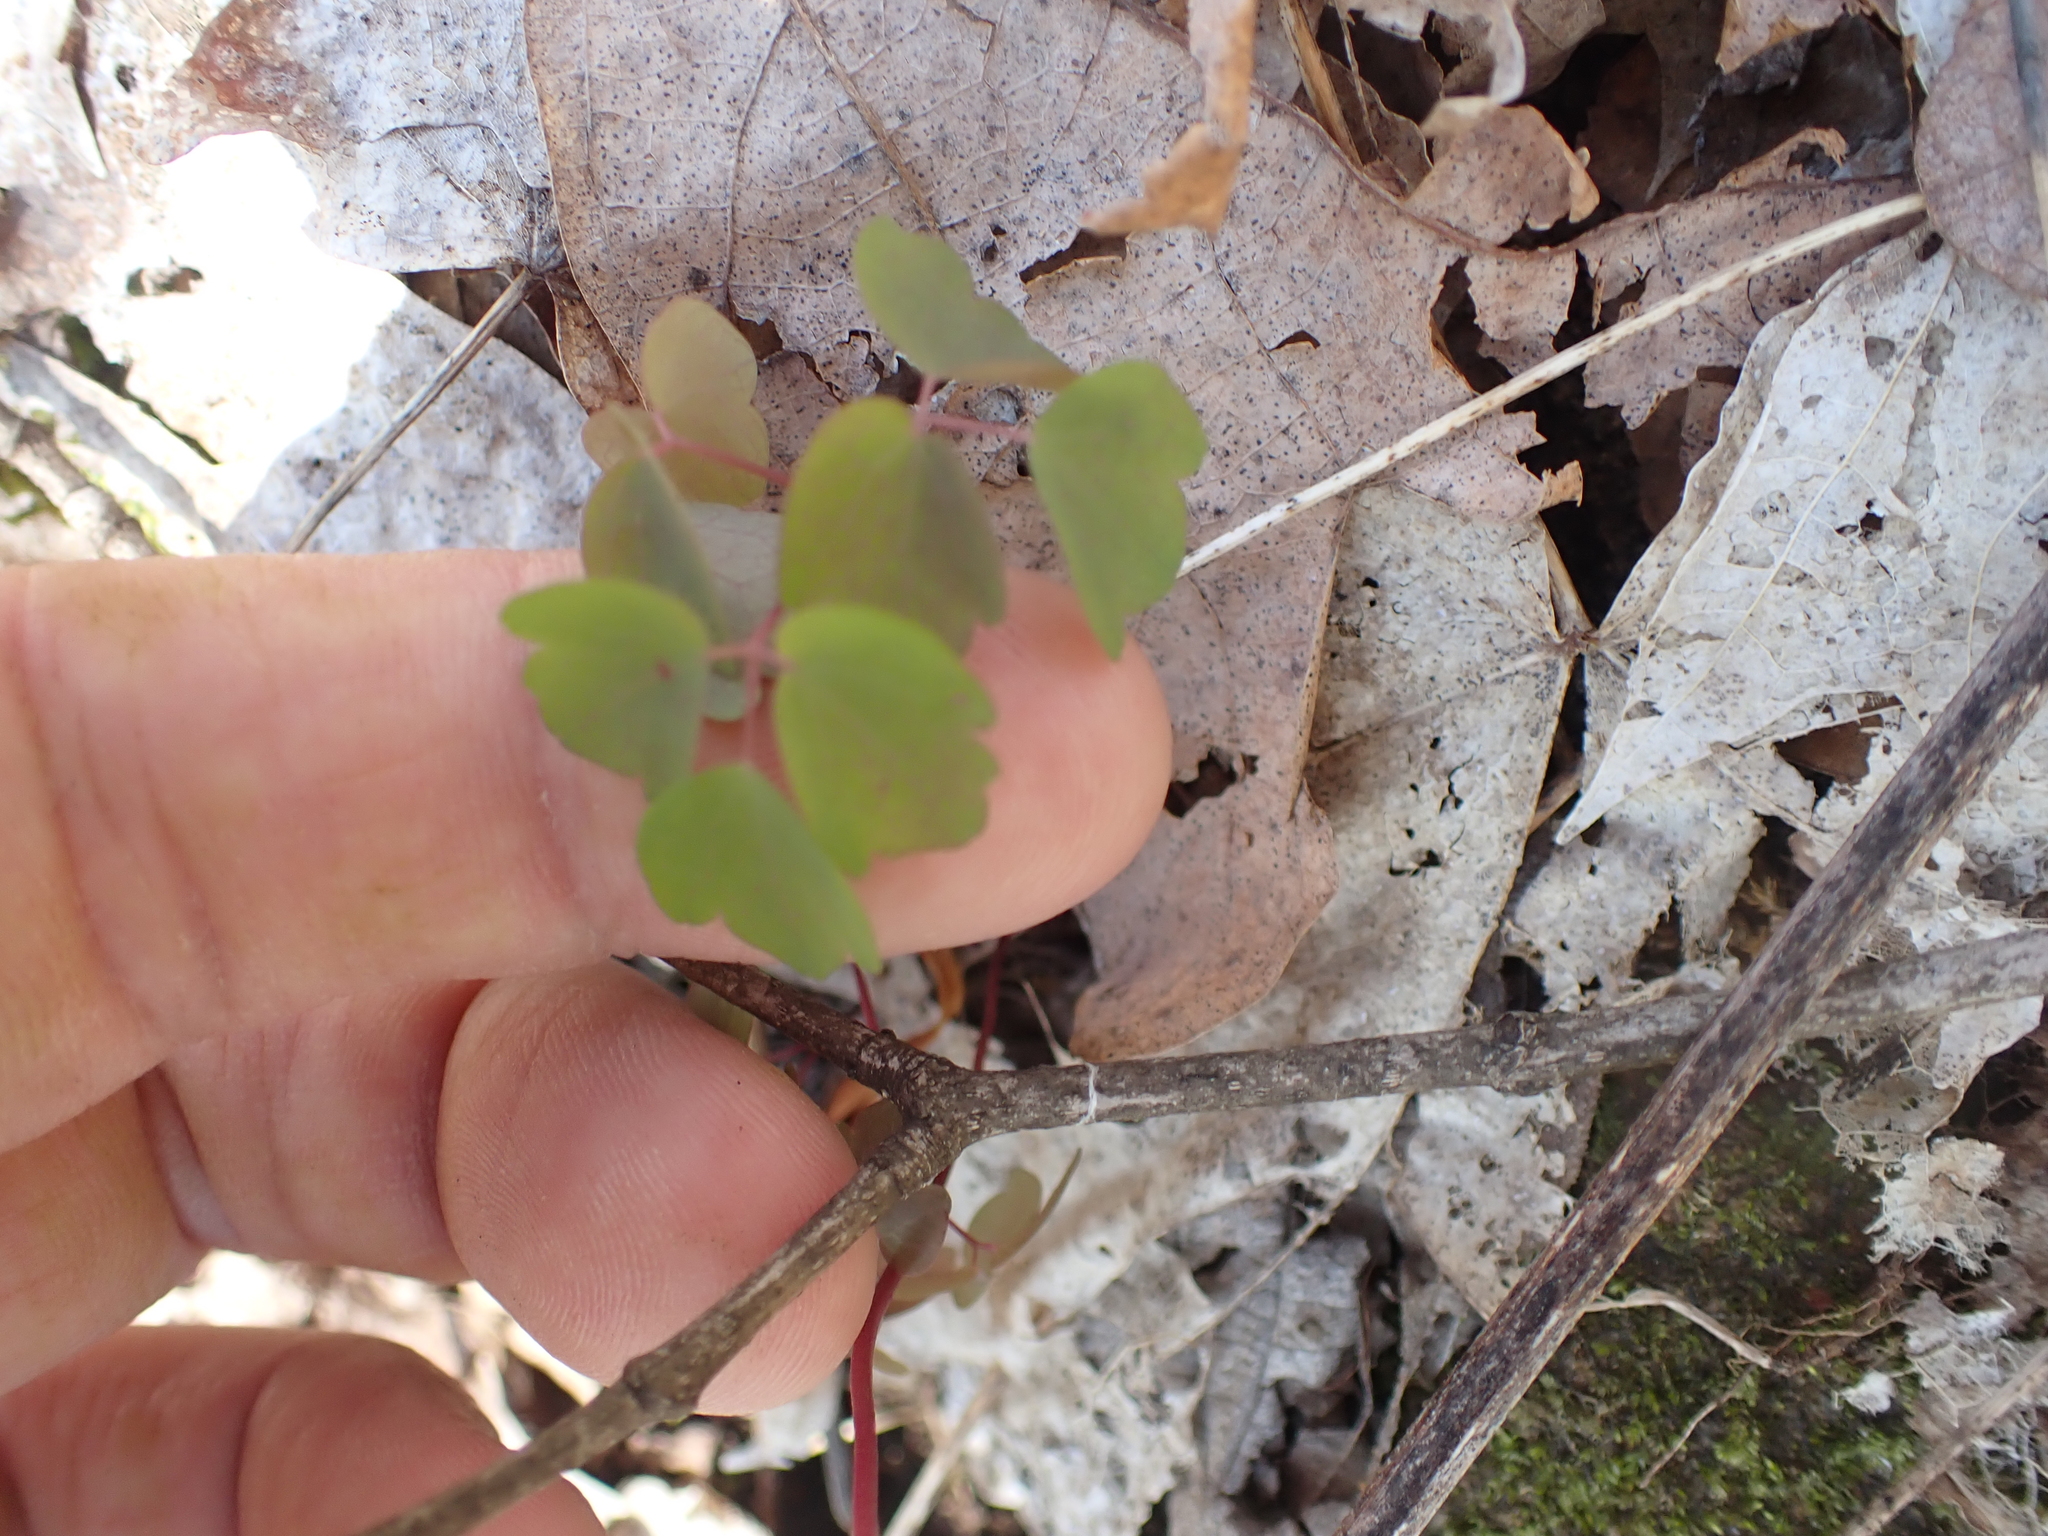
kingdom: Plantae
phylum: Tracheophyta
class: Magnoliopsida
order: Ranunculales
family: Ranunculaceae
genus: Thalictrum
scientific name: Thalictrum thalictroides
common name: Rue-anemone
